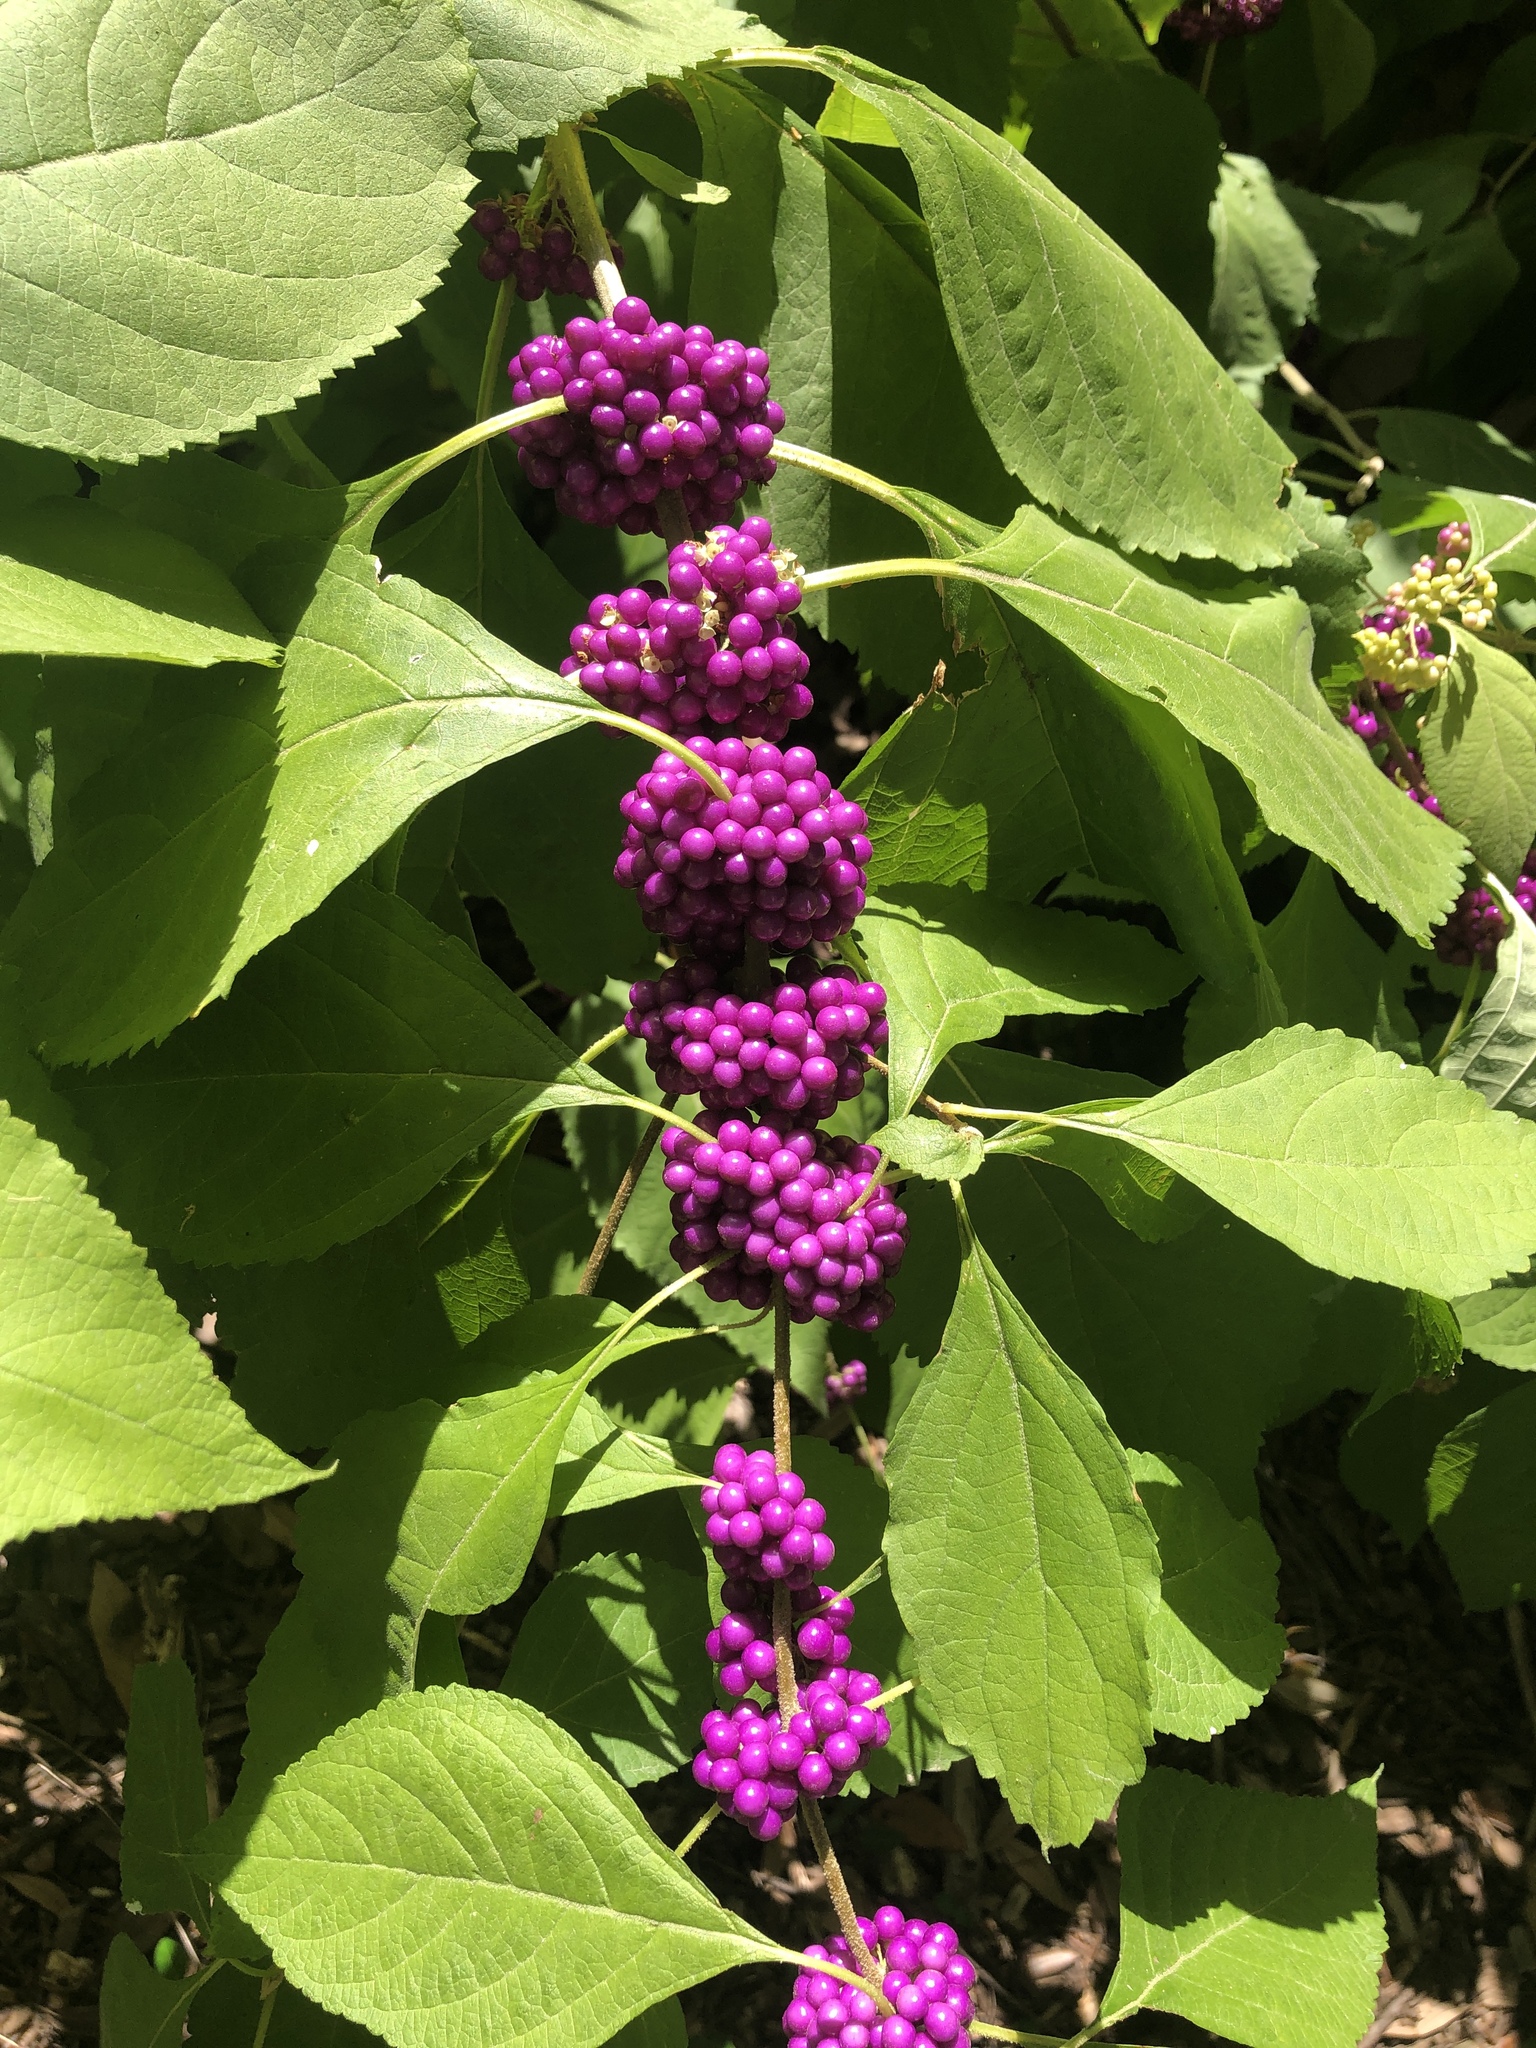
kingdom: Plantae
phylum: Tracheophyta
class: Magnoliopsida
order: Lamiales
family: Lamiaceae
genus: Callicarpa
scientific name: Callicarpa americana
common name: American beautyberry
